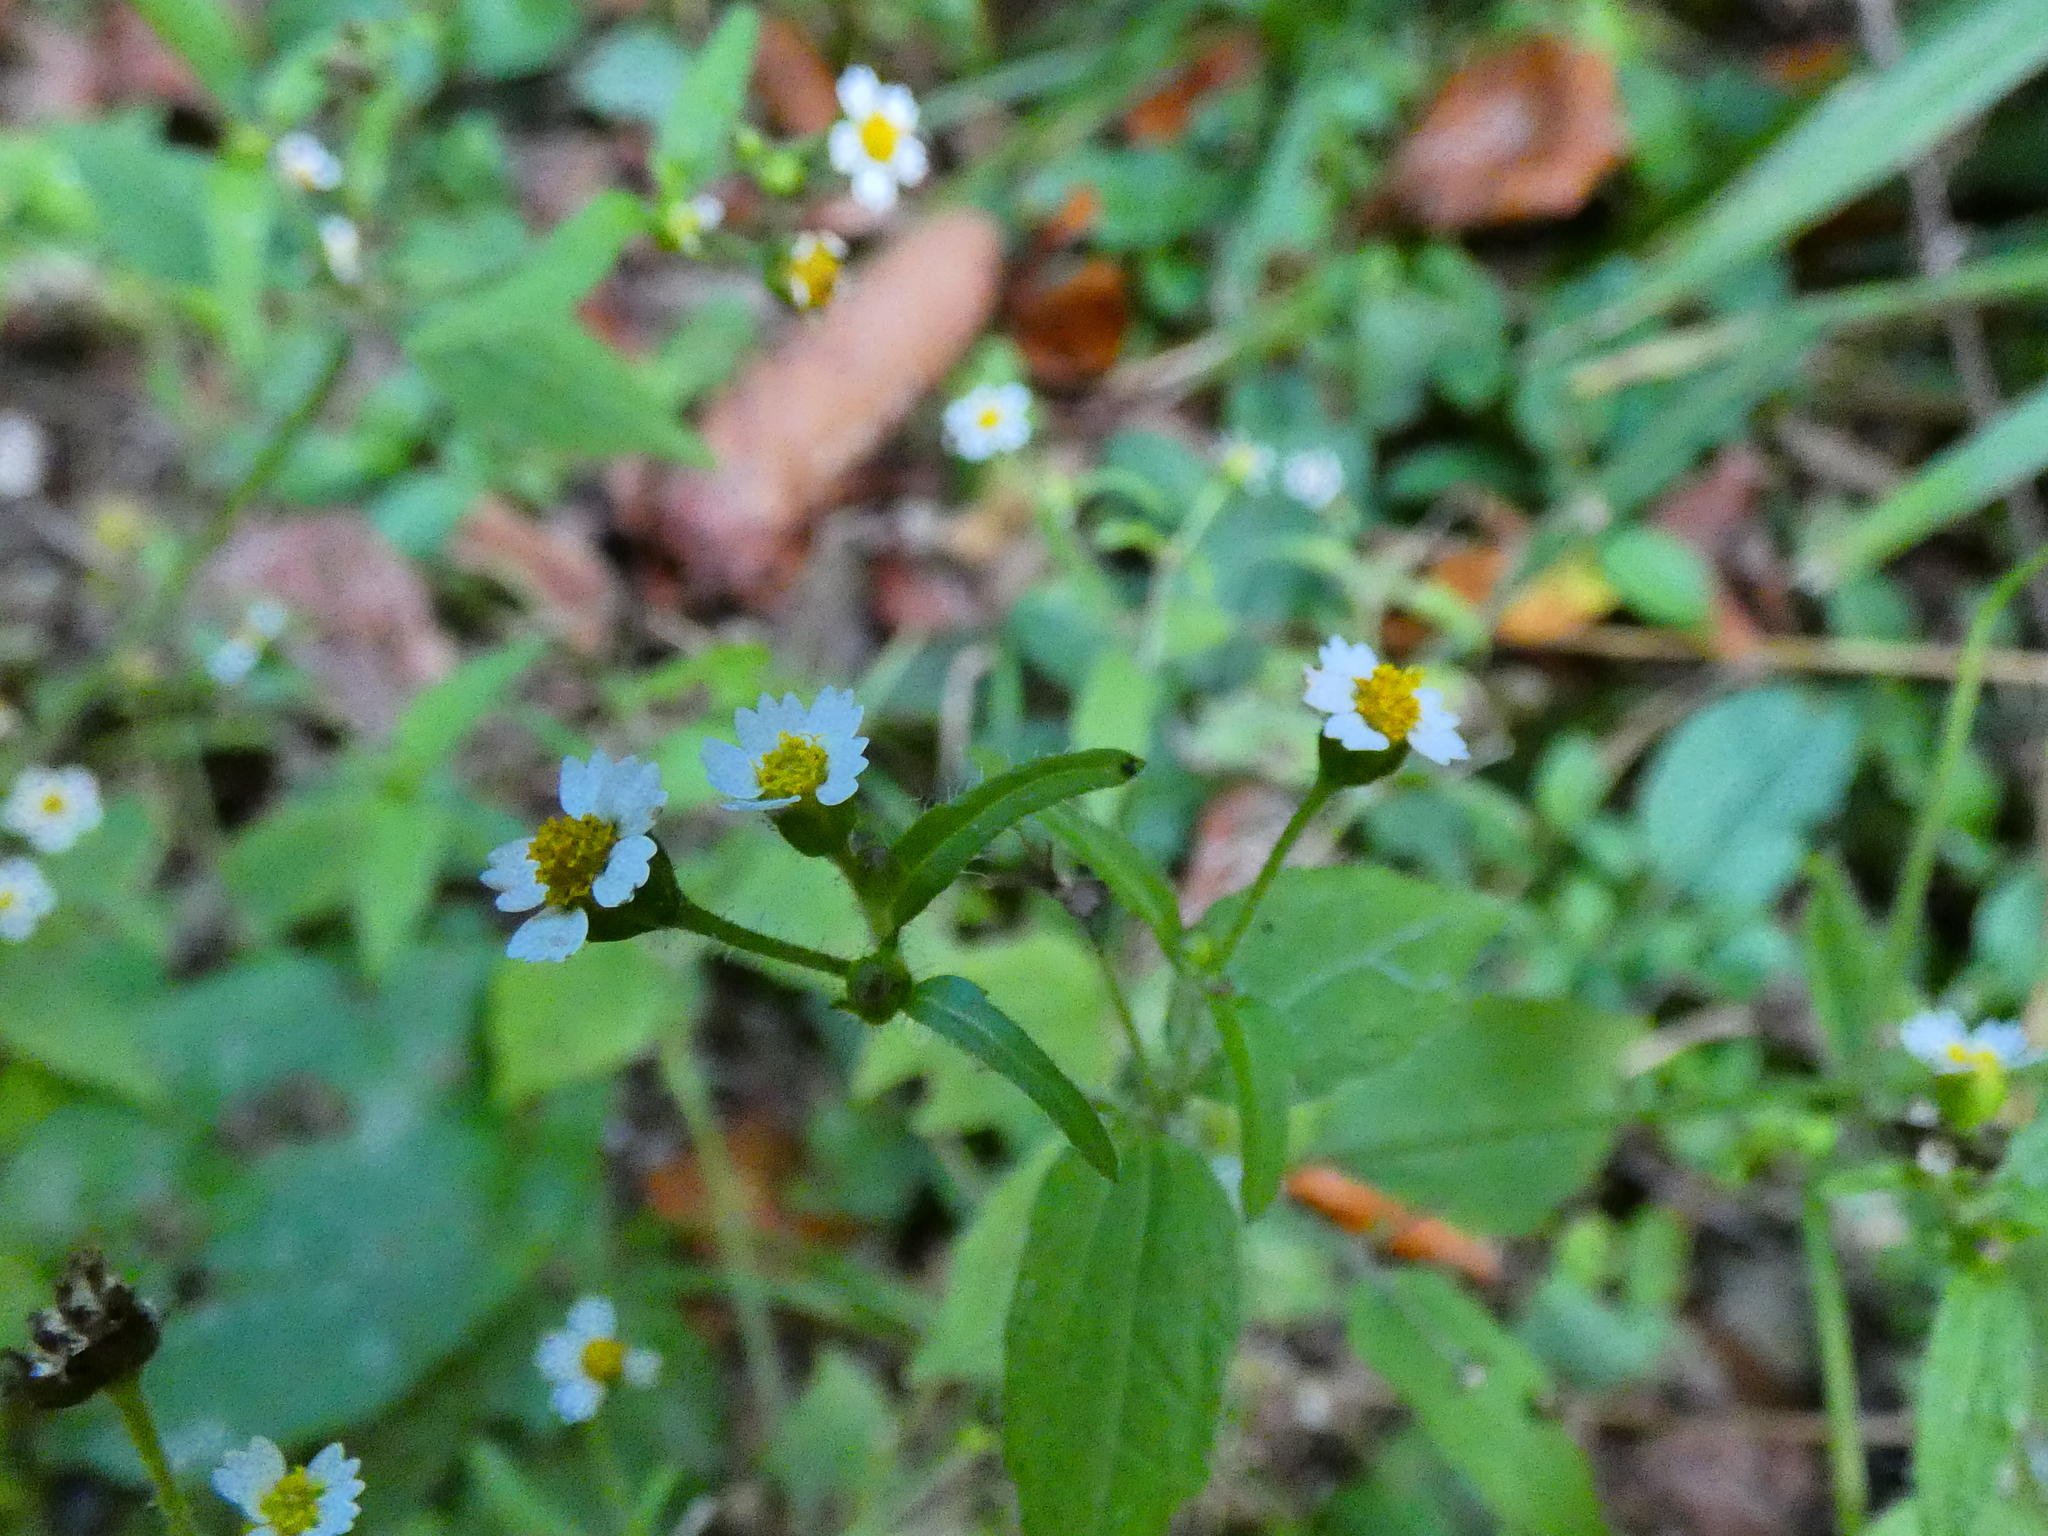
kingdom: Plantae
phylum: Tracheophyta
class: Magnoliopsida
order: Asterales
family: Asteraceae
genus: Galinsoga
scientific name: Galinsoga quadriradiata
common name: Shaggy soldier
